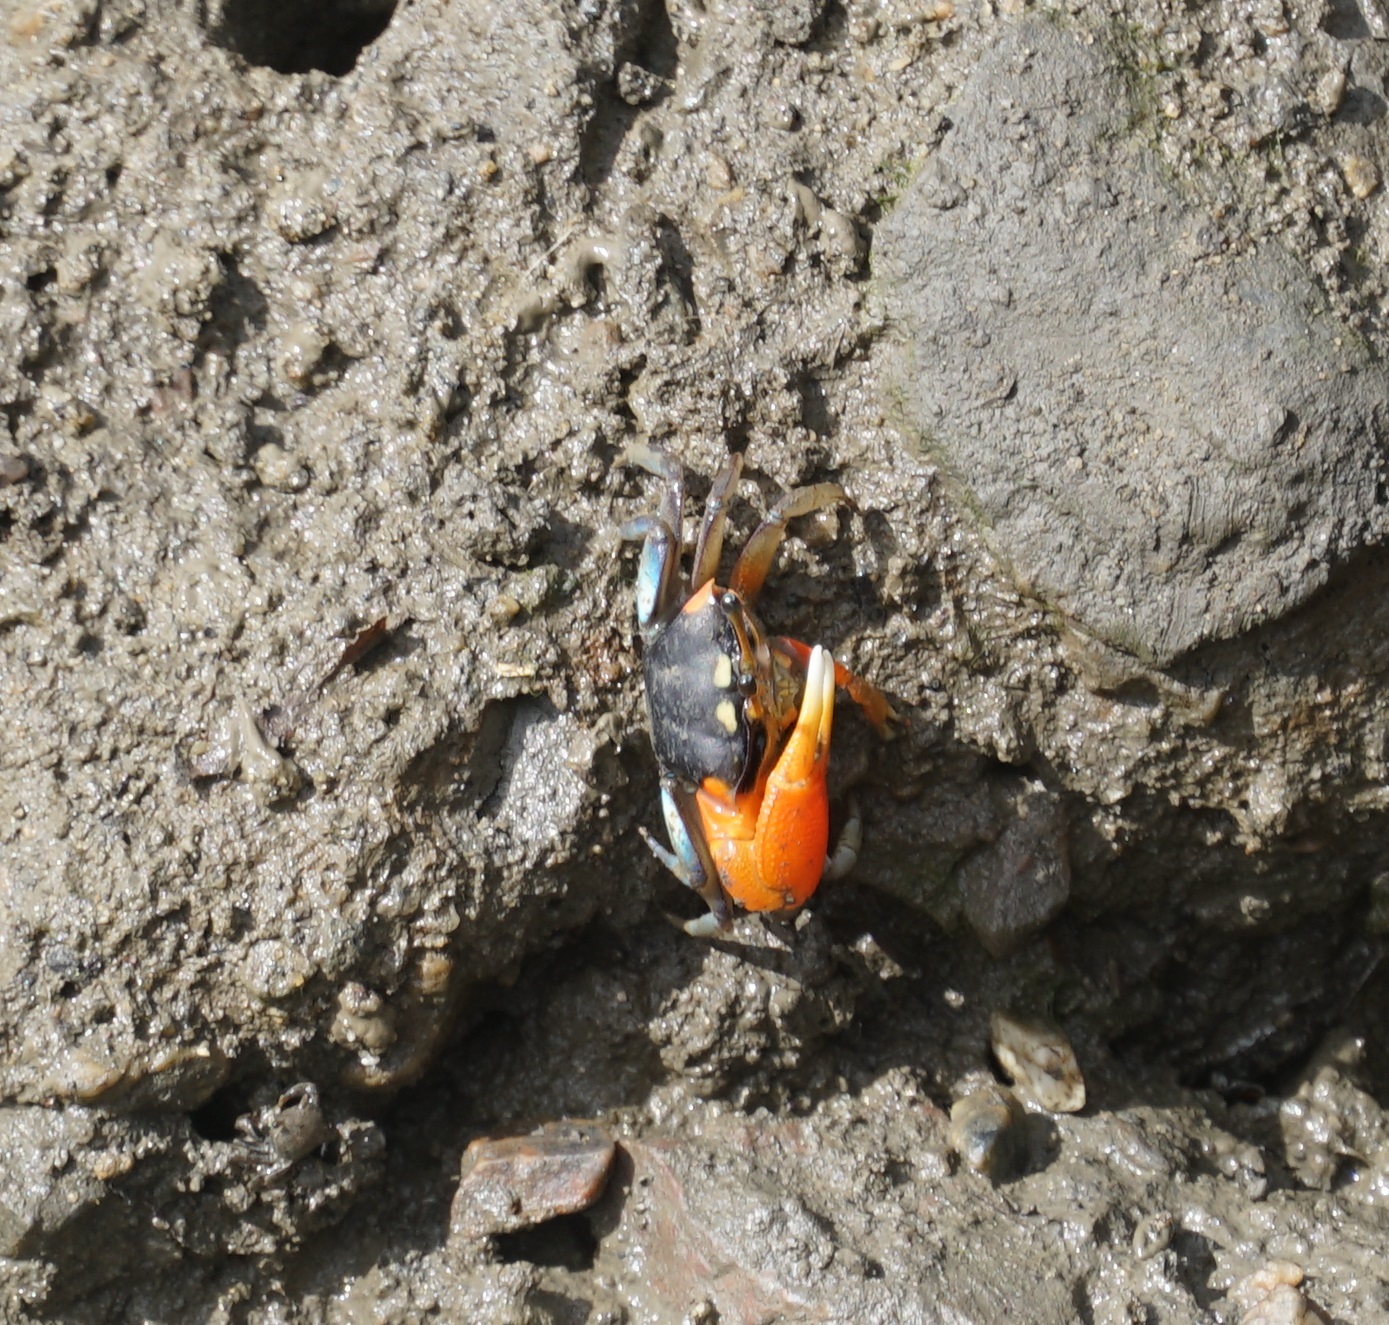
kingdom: Animalia
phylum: Arthropoda
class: Malacostraca
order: Decapoda
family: Ocypodidae
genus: Tubuca
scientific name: Tubuca coarctata
